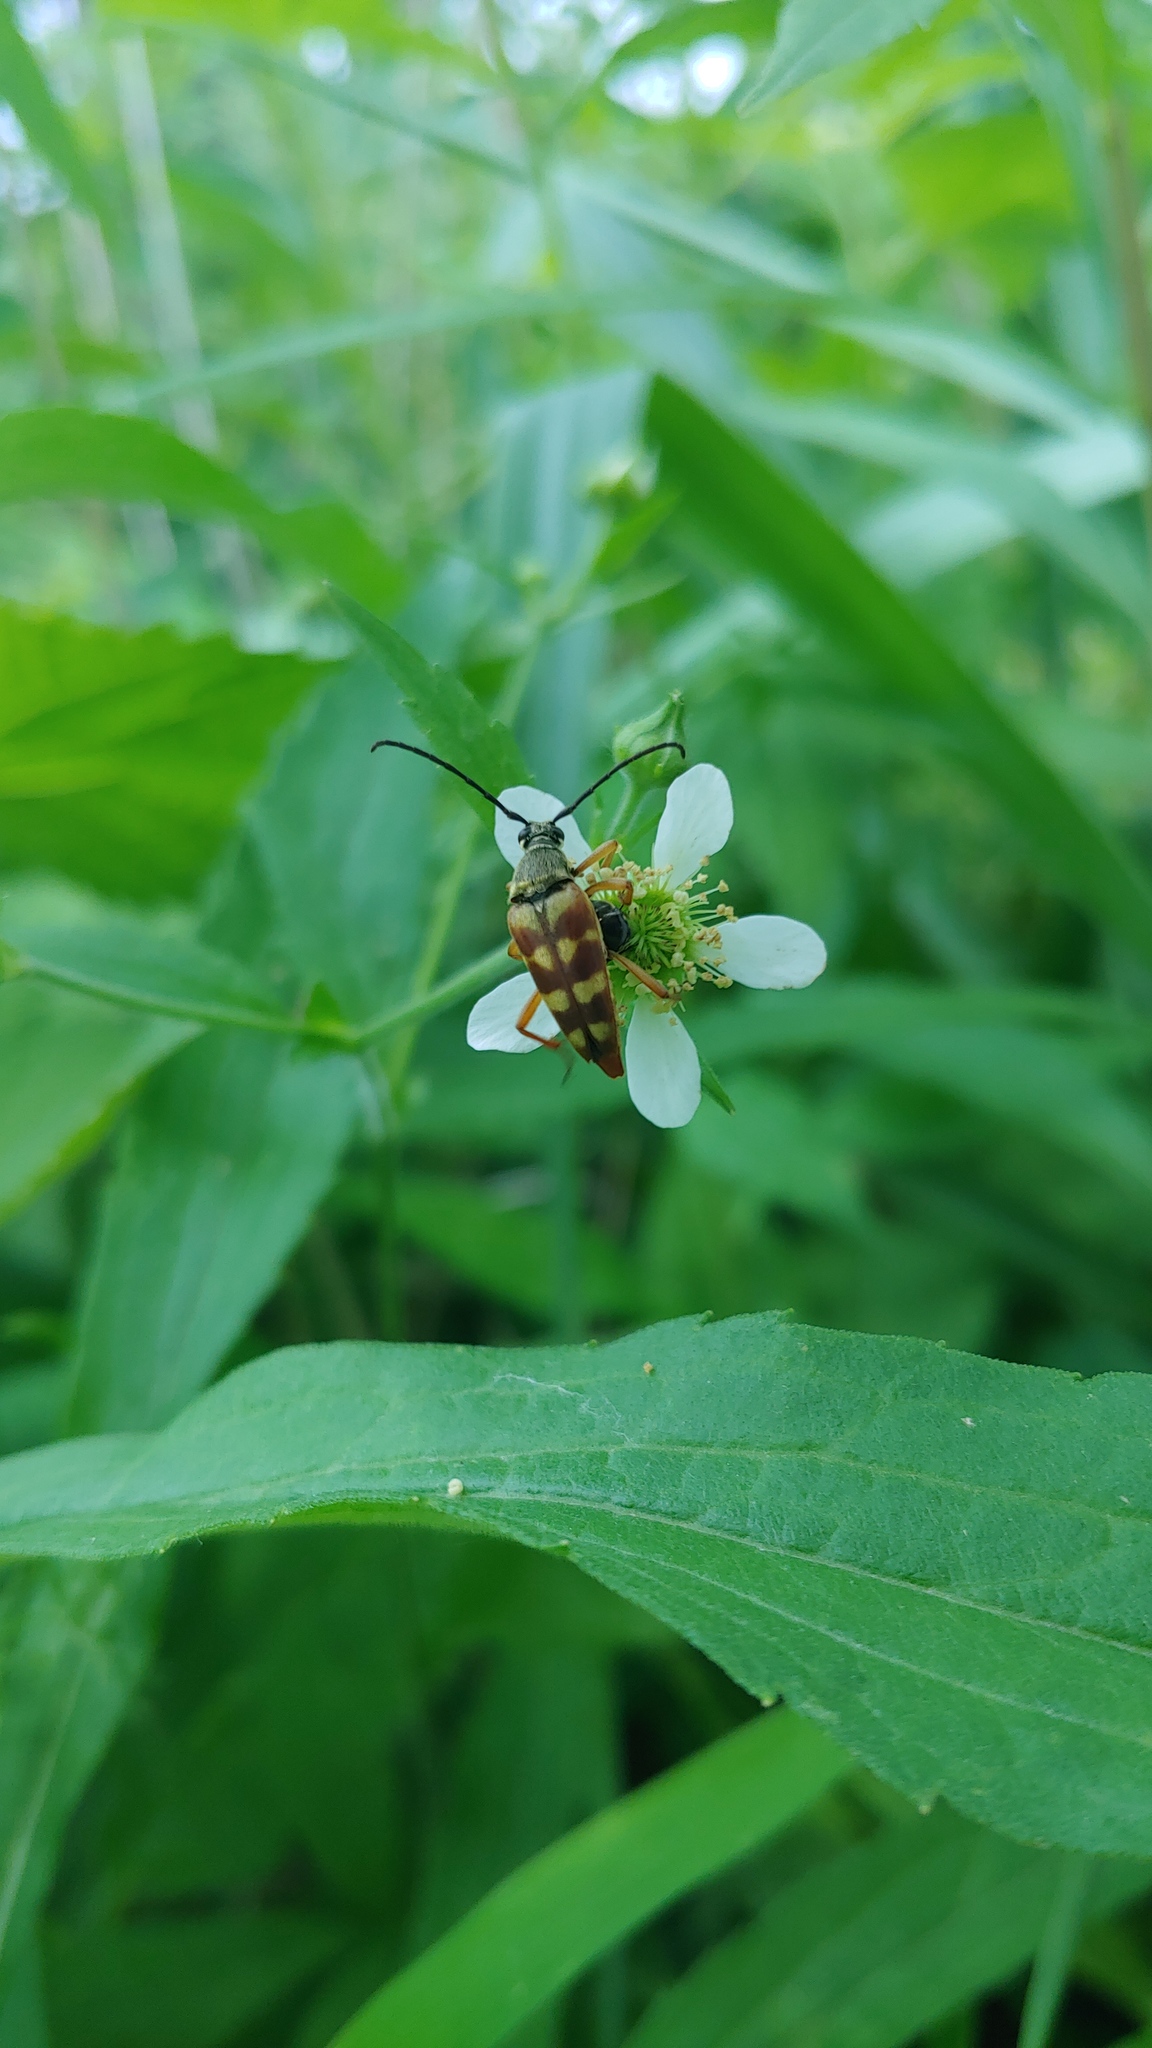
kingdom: Animalia
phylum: Arthropoda
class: Insecta
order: Coleoptera
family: Cerambycidae
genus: Typocerus
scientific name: Typocerus velutinus
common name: Banded longhorn beetle
